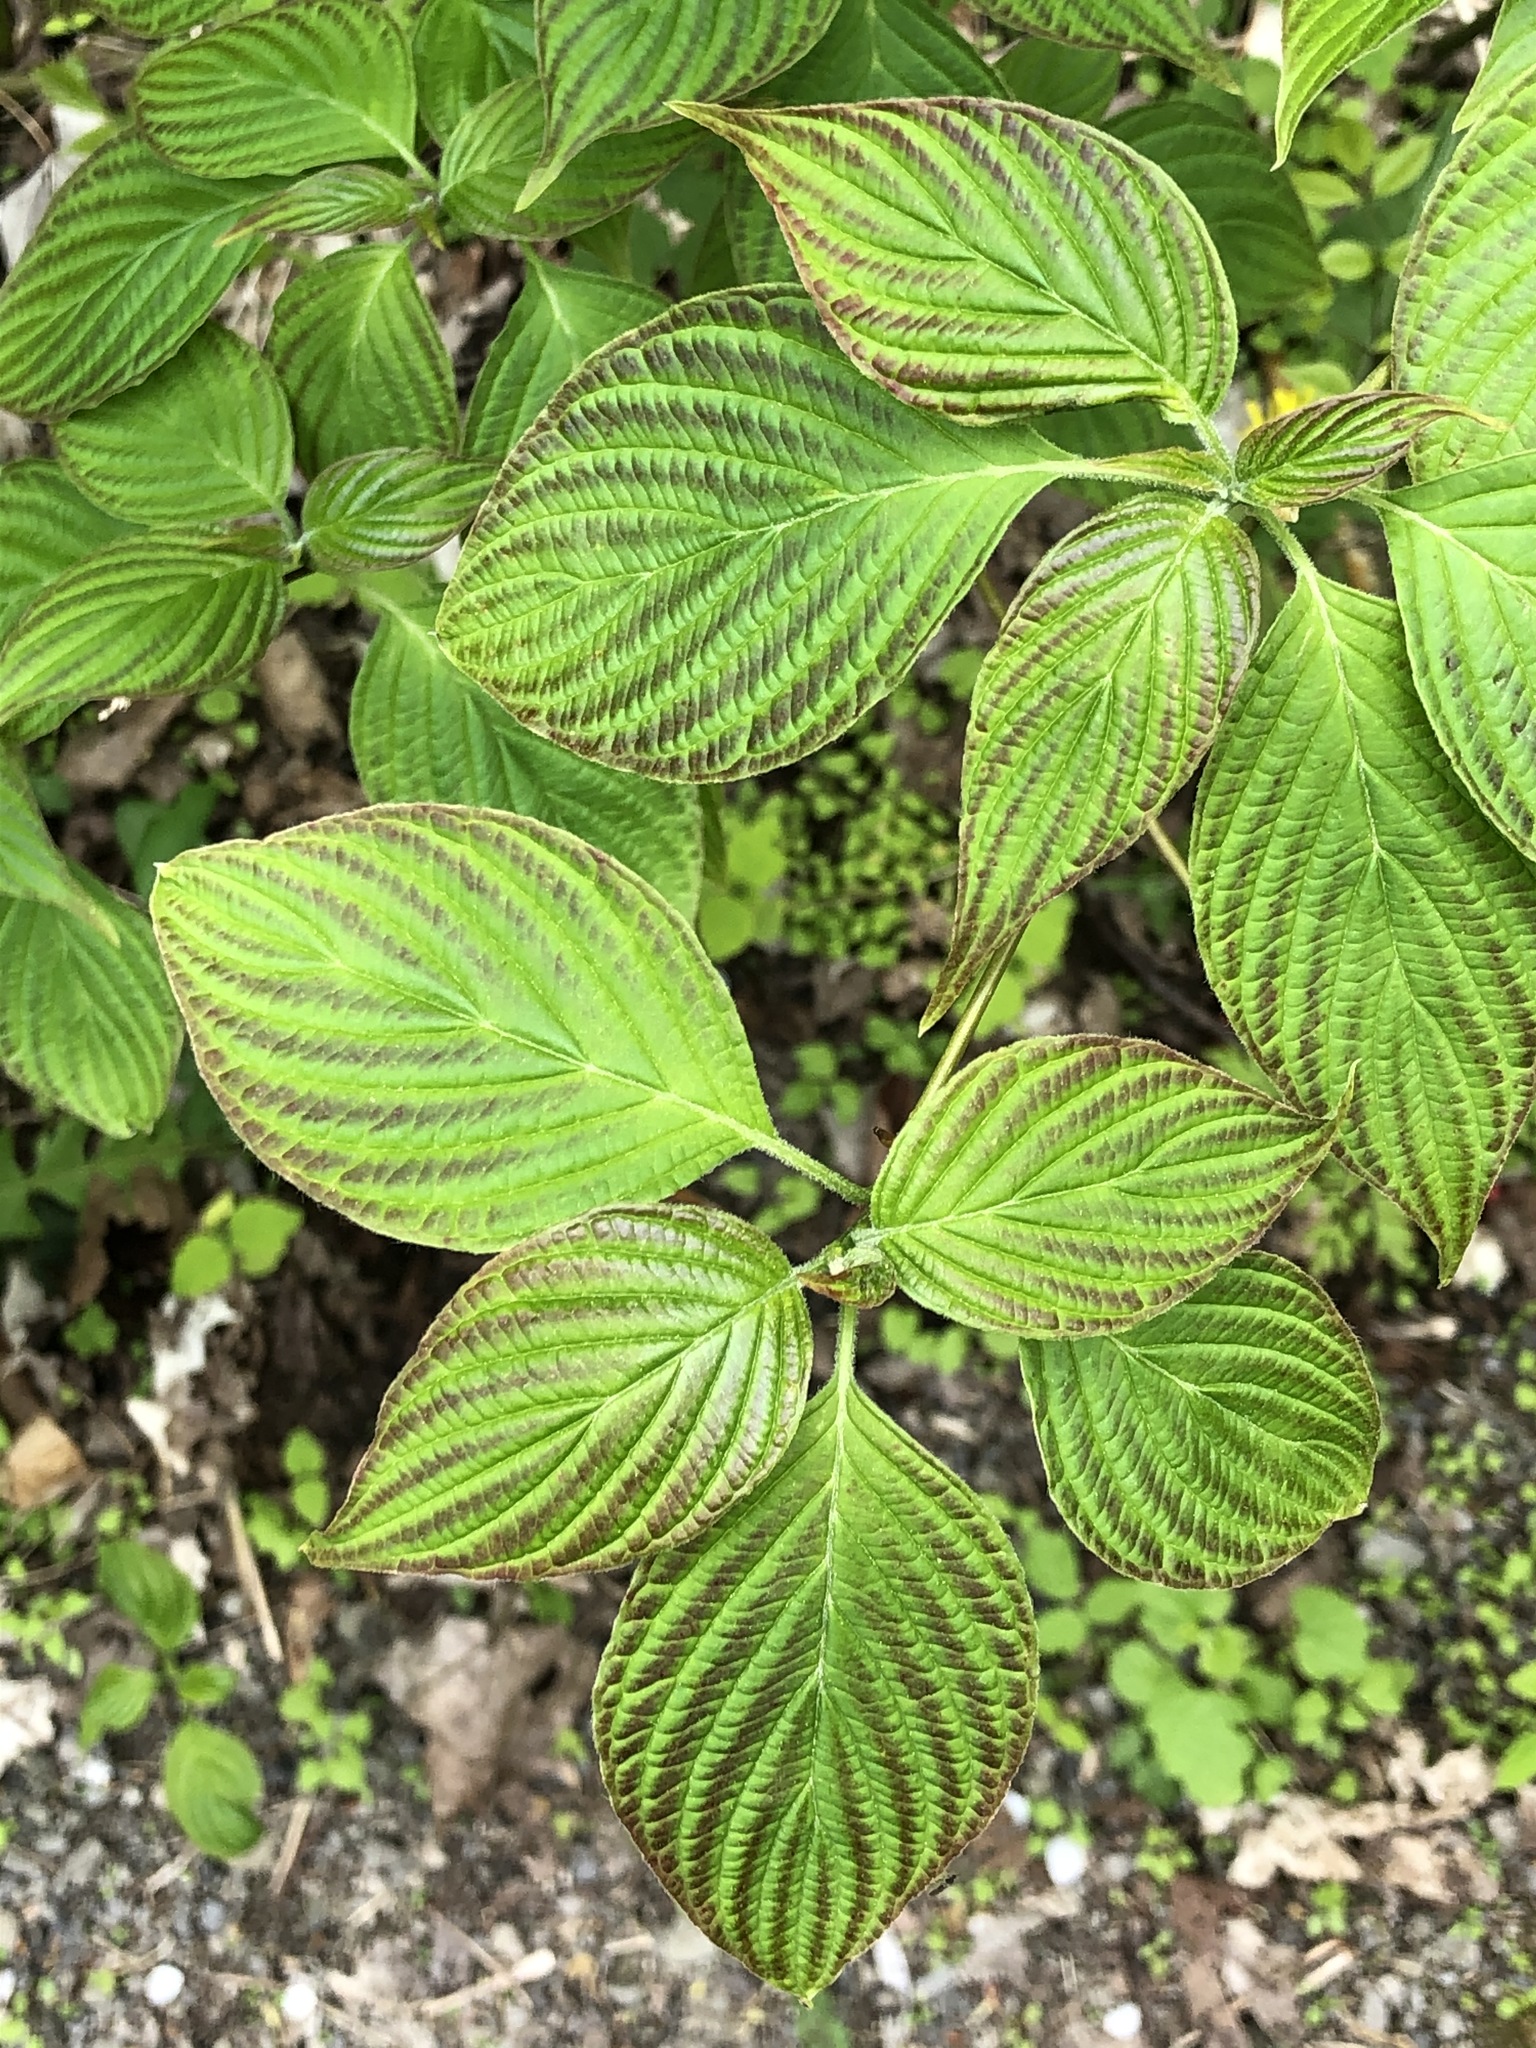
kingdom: Plantae
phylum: Tracheophyta
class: Magnoliopsida
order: Cornales
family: Cornaceae
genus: Cornus
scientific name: Cornus alternifolia
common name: Pagoda dogwood
